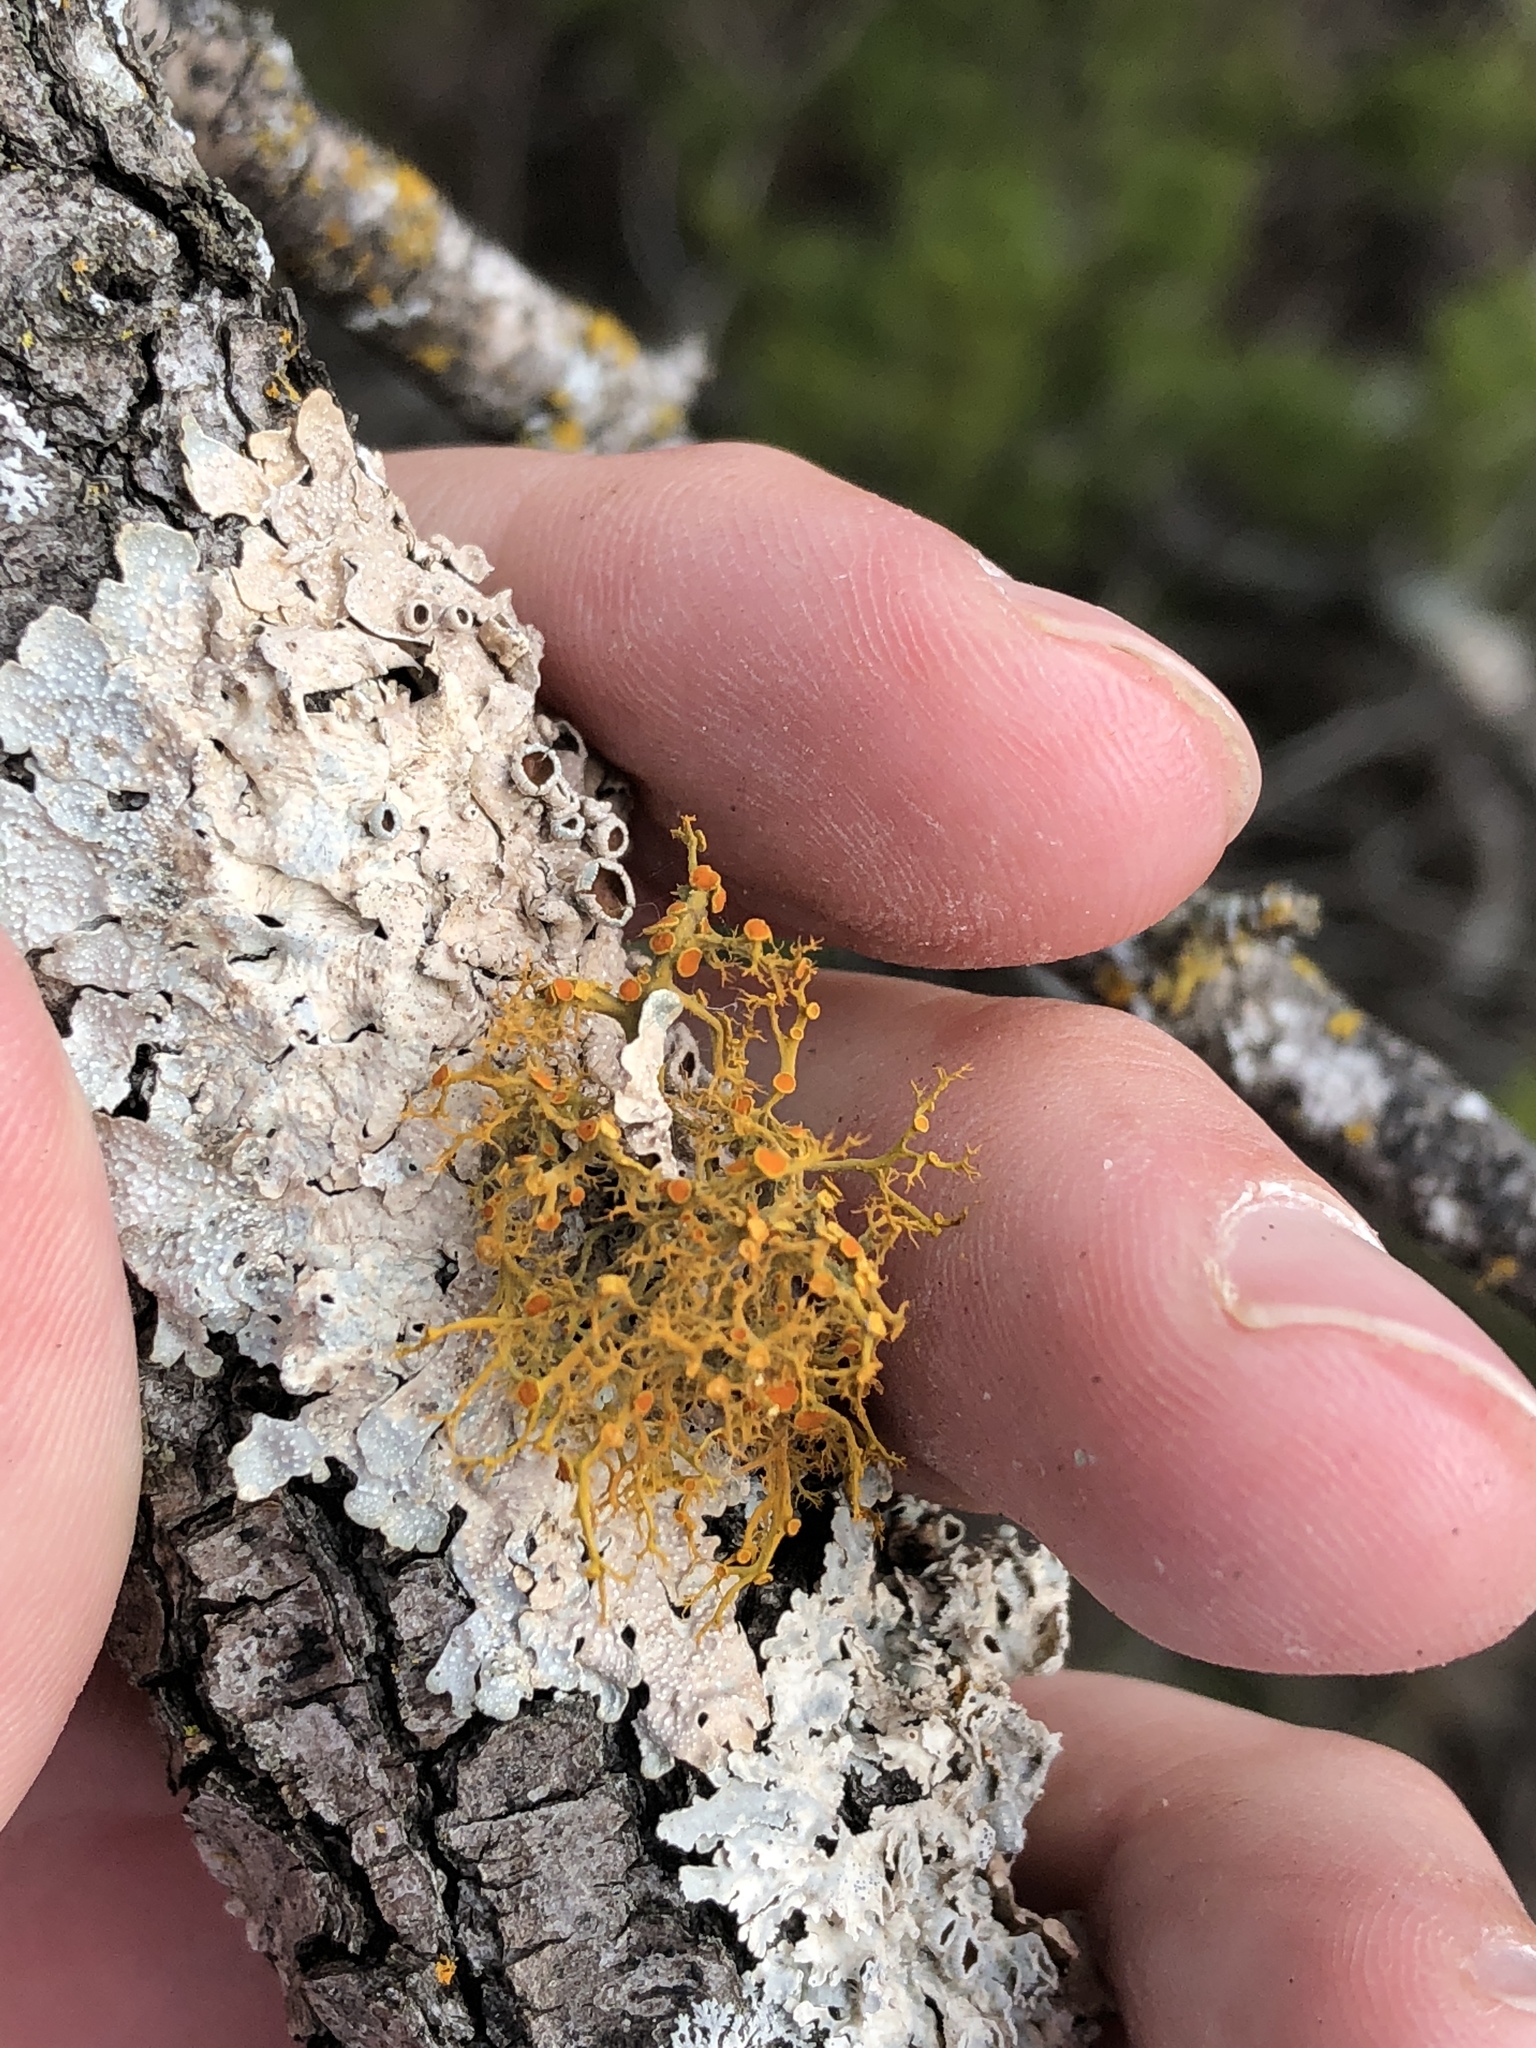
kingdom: Fungi
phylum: Ascomycota
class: Lecanoromycetes
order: Teloschistales
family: Teloschistaceae
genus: Teloschistes
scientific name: Teloschistes exilis
